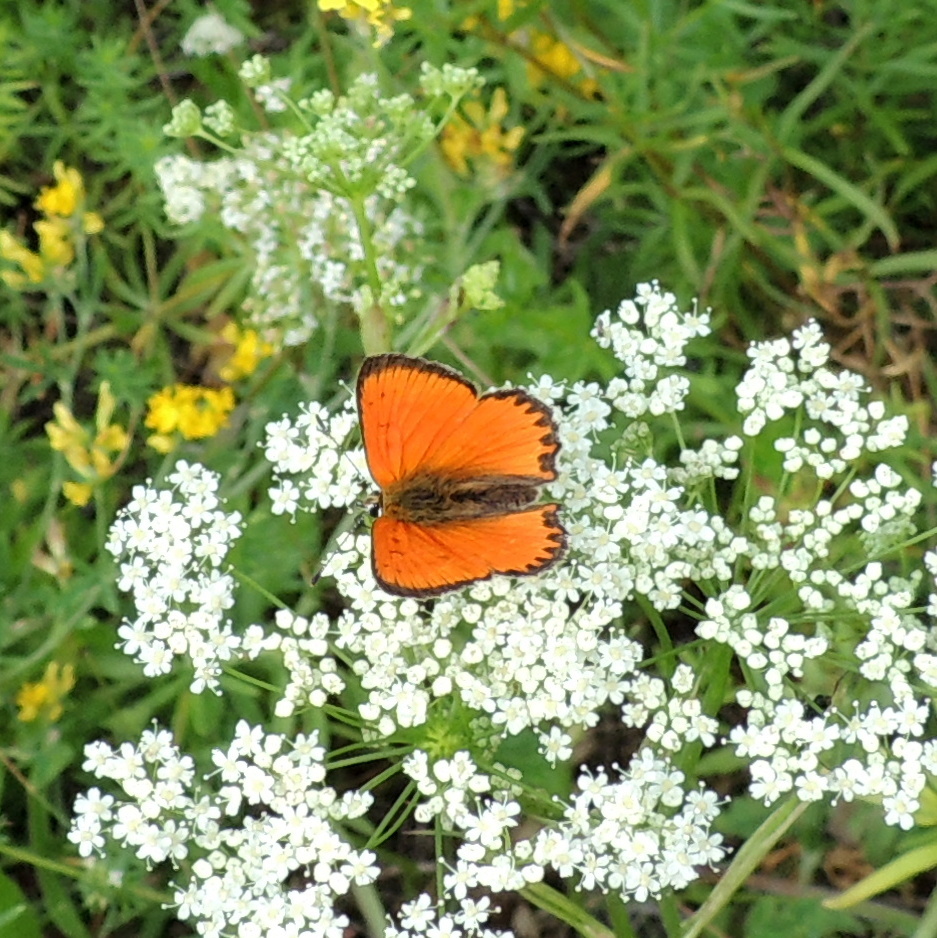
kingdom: Animalia
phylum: Arthropoda
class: Insecta
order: Lepidoptera
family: Lycaenidae
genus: Lycaena
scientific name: Lycaena virgaureae
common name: Scarce copper
